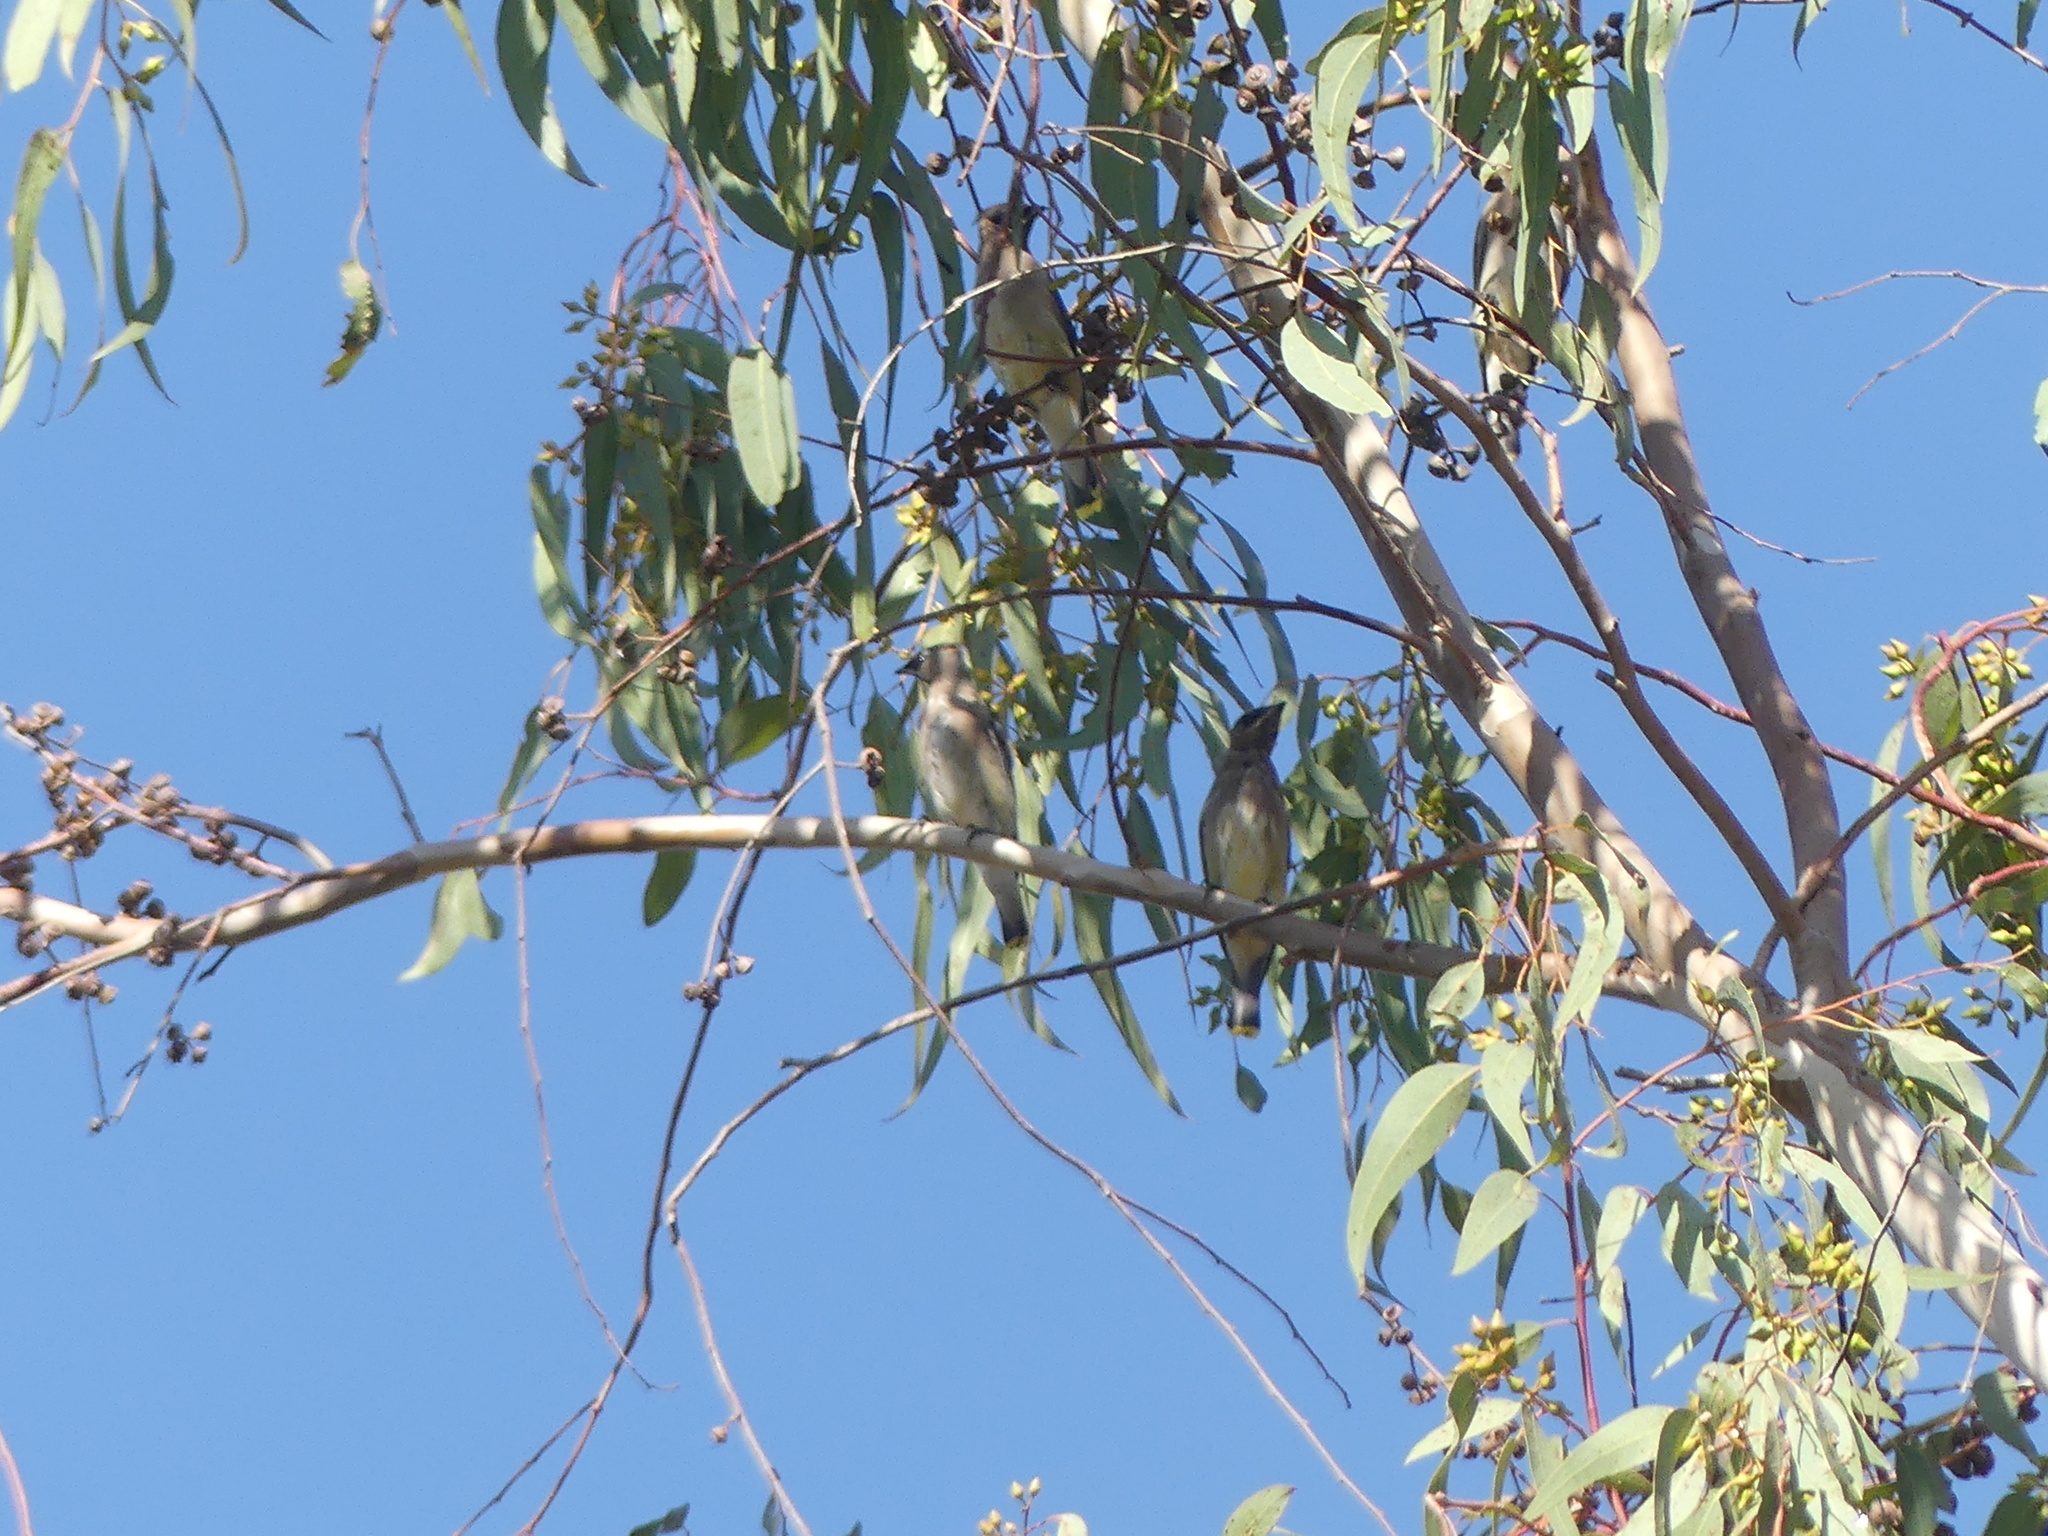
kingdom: Animalia
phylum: Chordata
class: Aves
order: Passeriformes
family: Bombycillidae
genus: Bombycilla
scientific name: Bombycilla cedrorum
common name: Cedar waxwing
